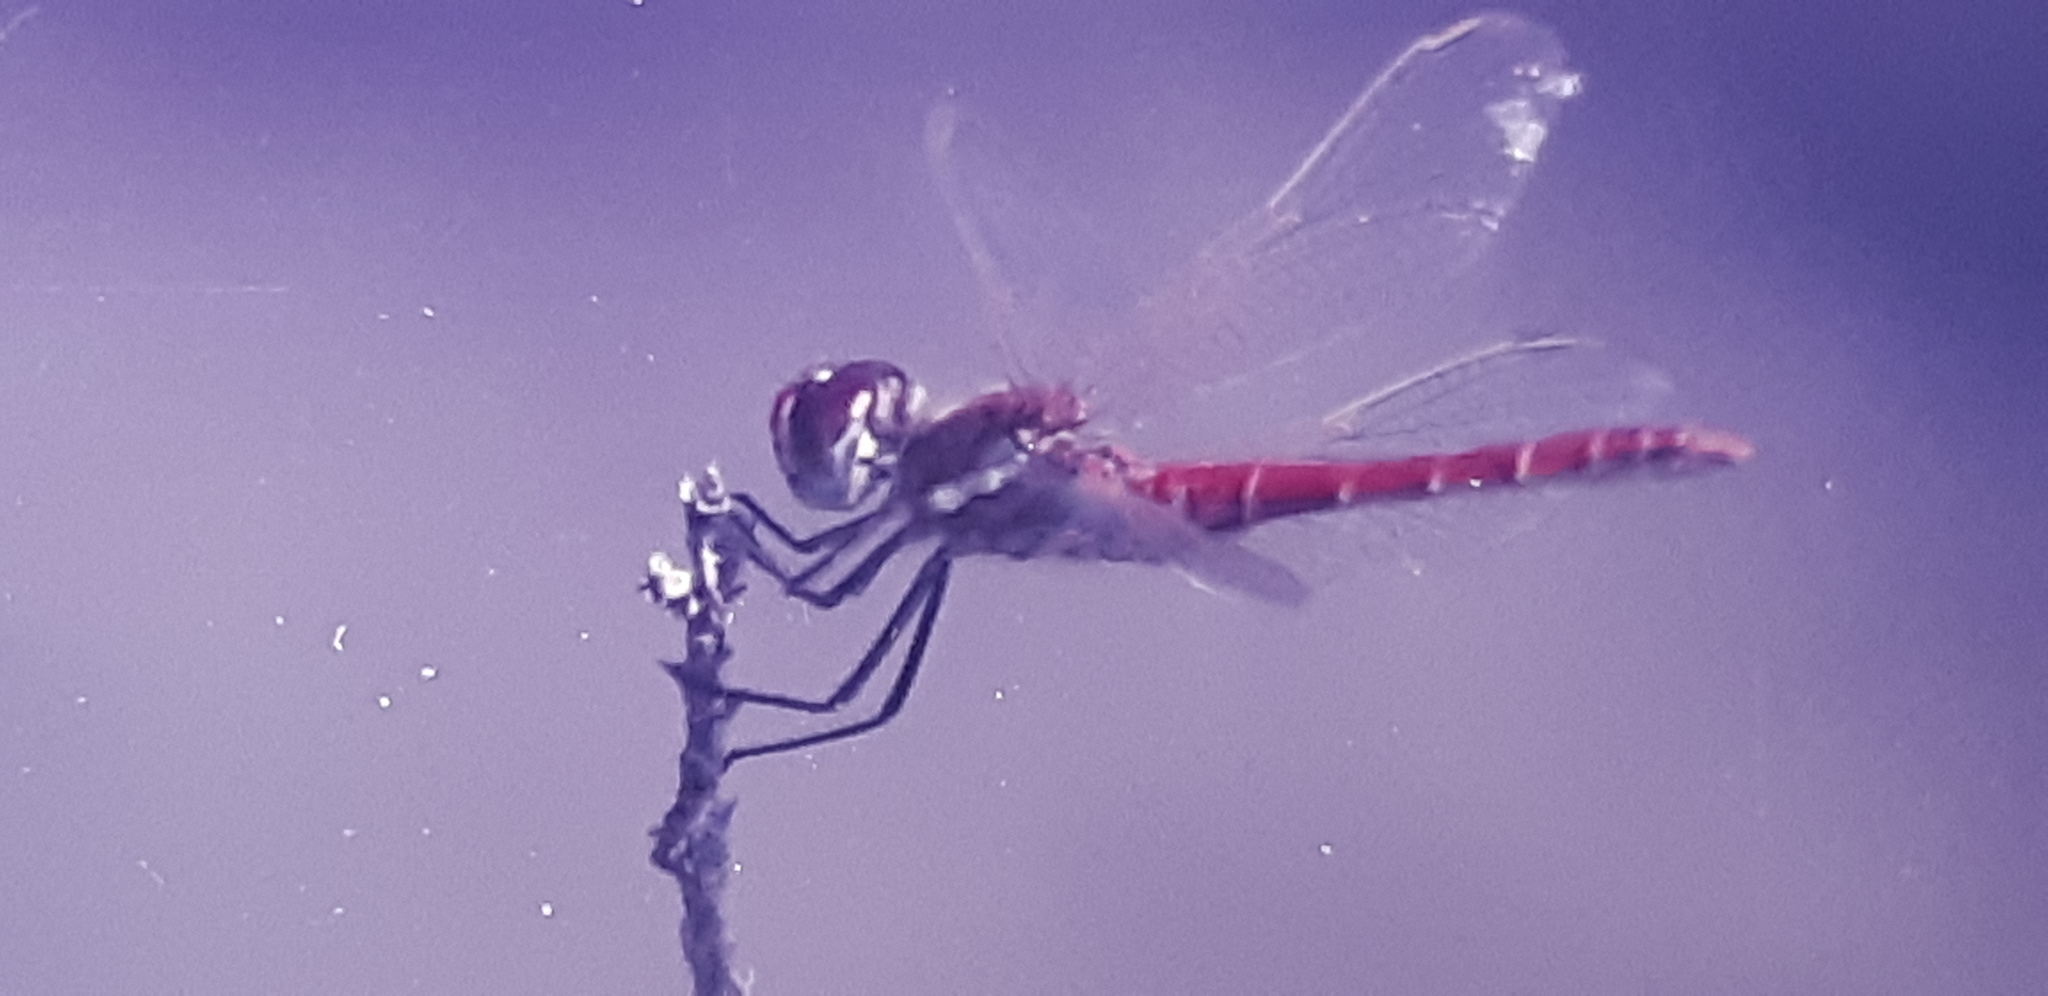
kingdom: Animalia
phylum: Arthropoda
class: Insecta
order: Odonata
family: Libellulidae
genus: Sympetrum
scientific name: Sympetrum fonscolombii
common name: Red-veined darter
